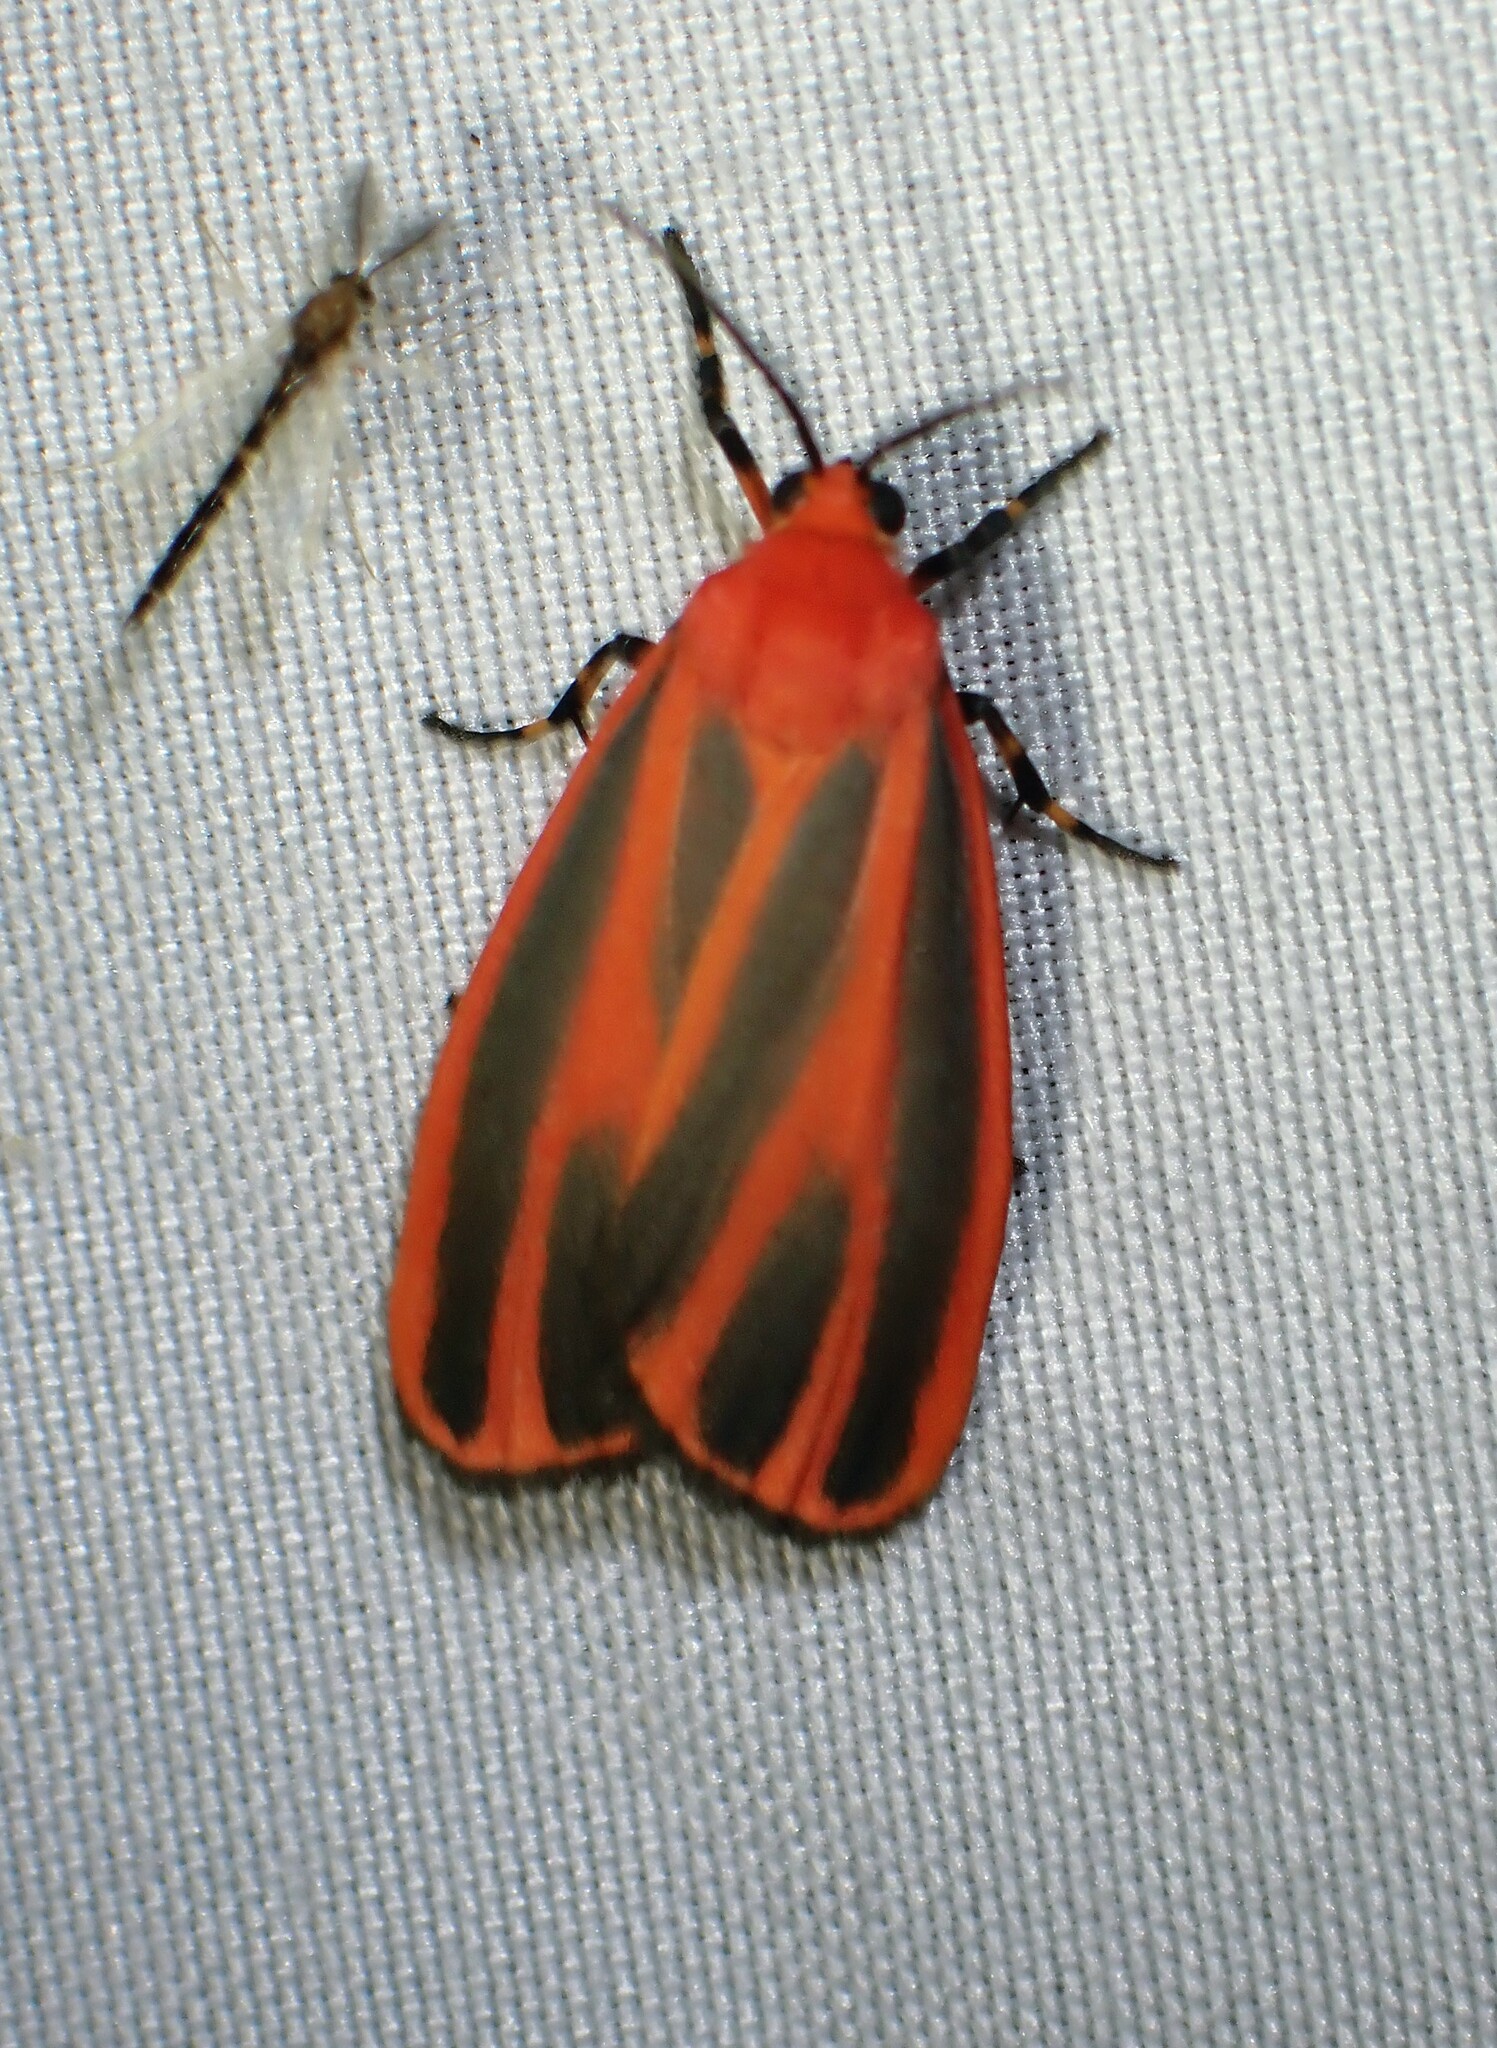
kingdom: Animalia
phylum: Arthropoda
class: Insecta
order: Lepidoptera
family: Erebidae
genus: Hypoprepia
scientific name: Hypoprepia miniata
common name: Scarlet-winged lichen moth
